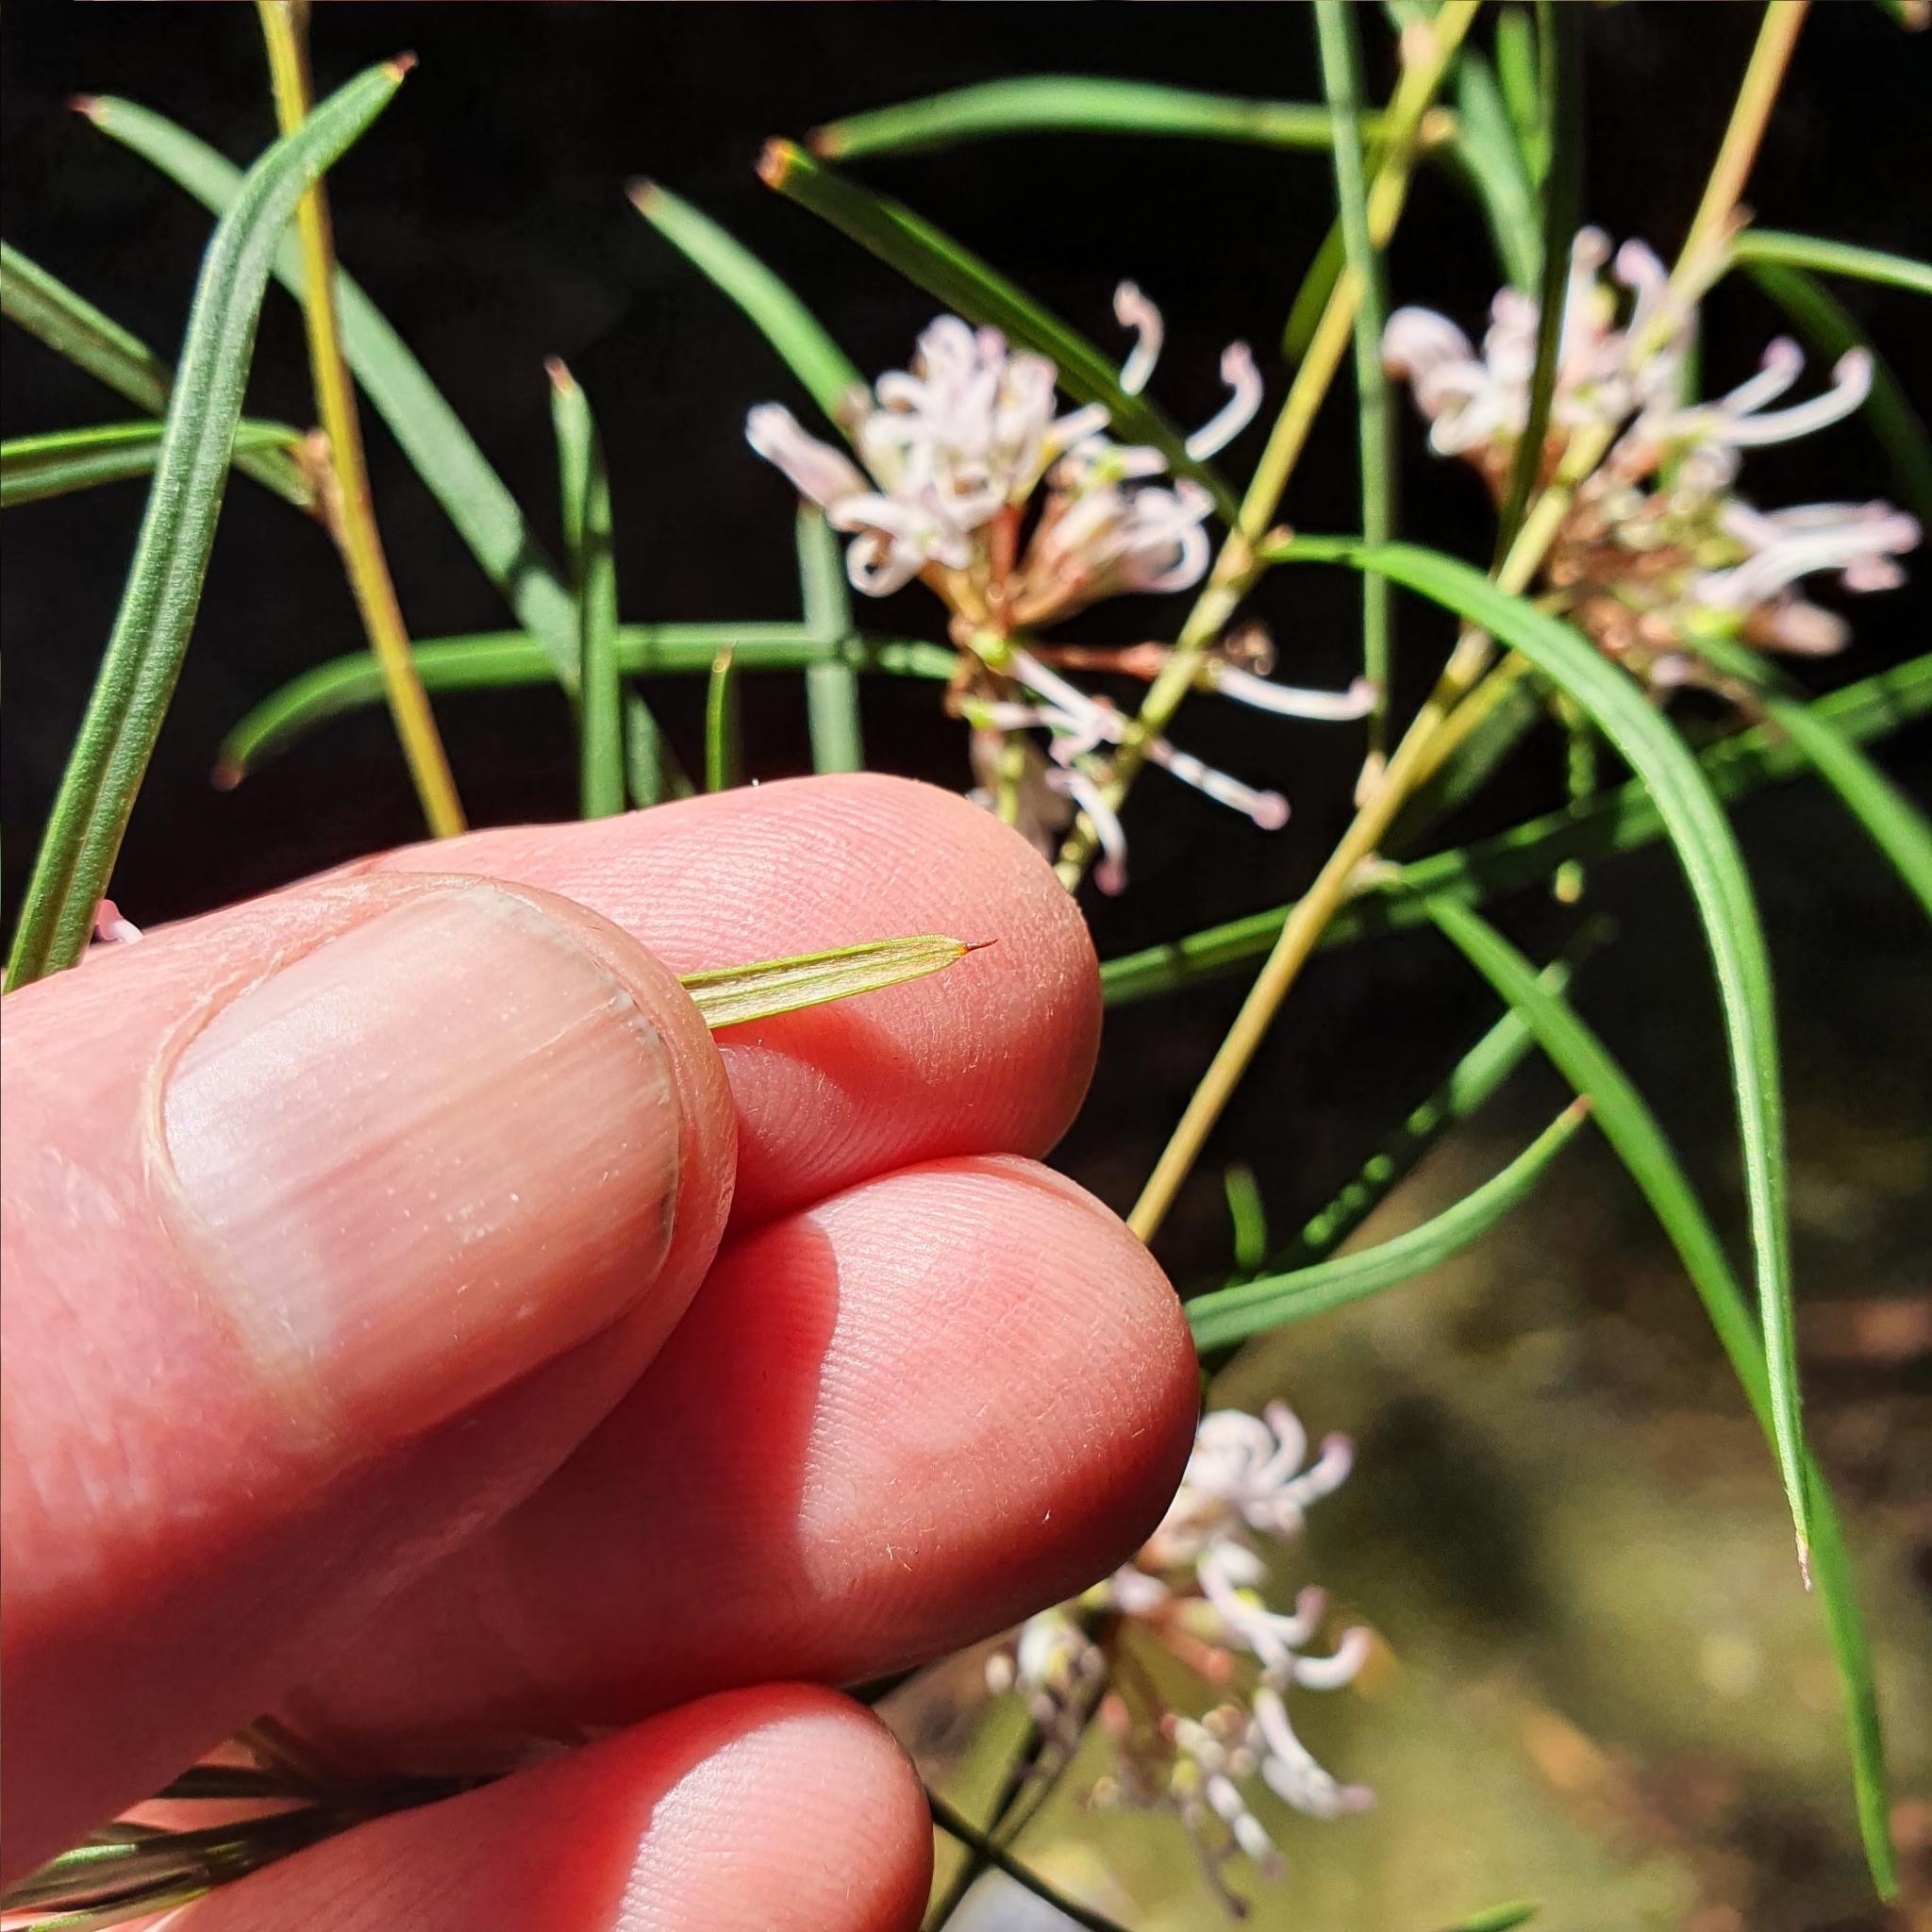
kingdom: Plantae
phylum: Tracheophyta
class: Magnoliopsida
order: Proteales
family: Proteaceae
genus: Grevillea
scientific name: Grevillea linearifolia
